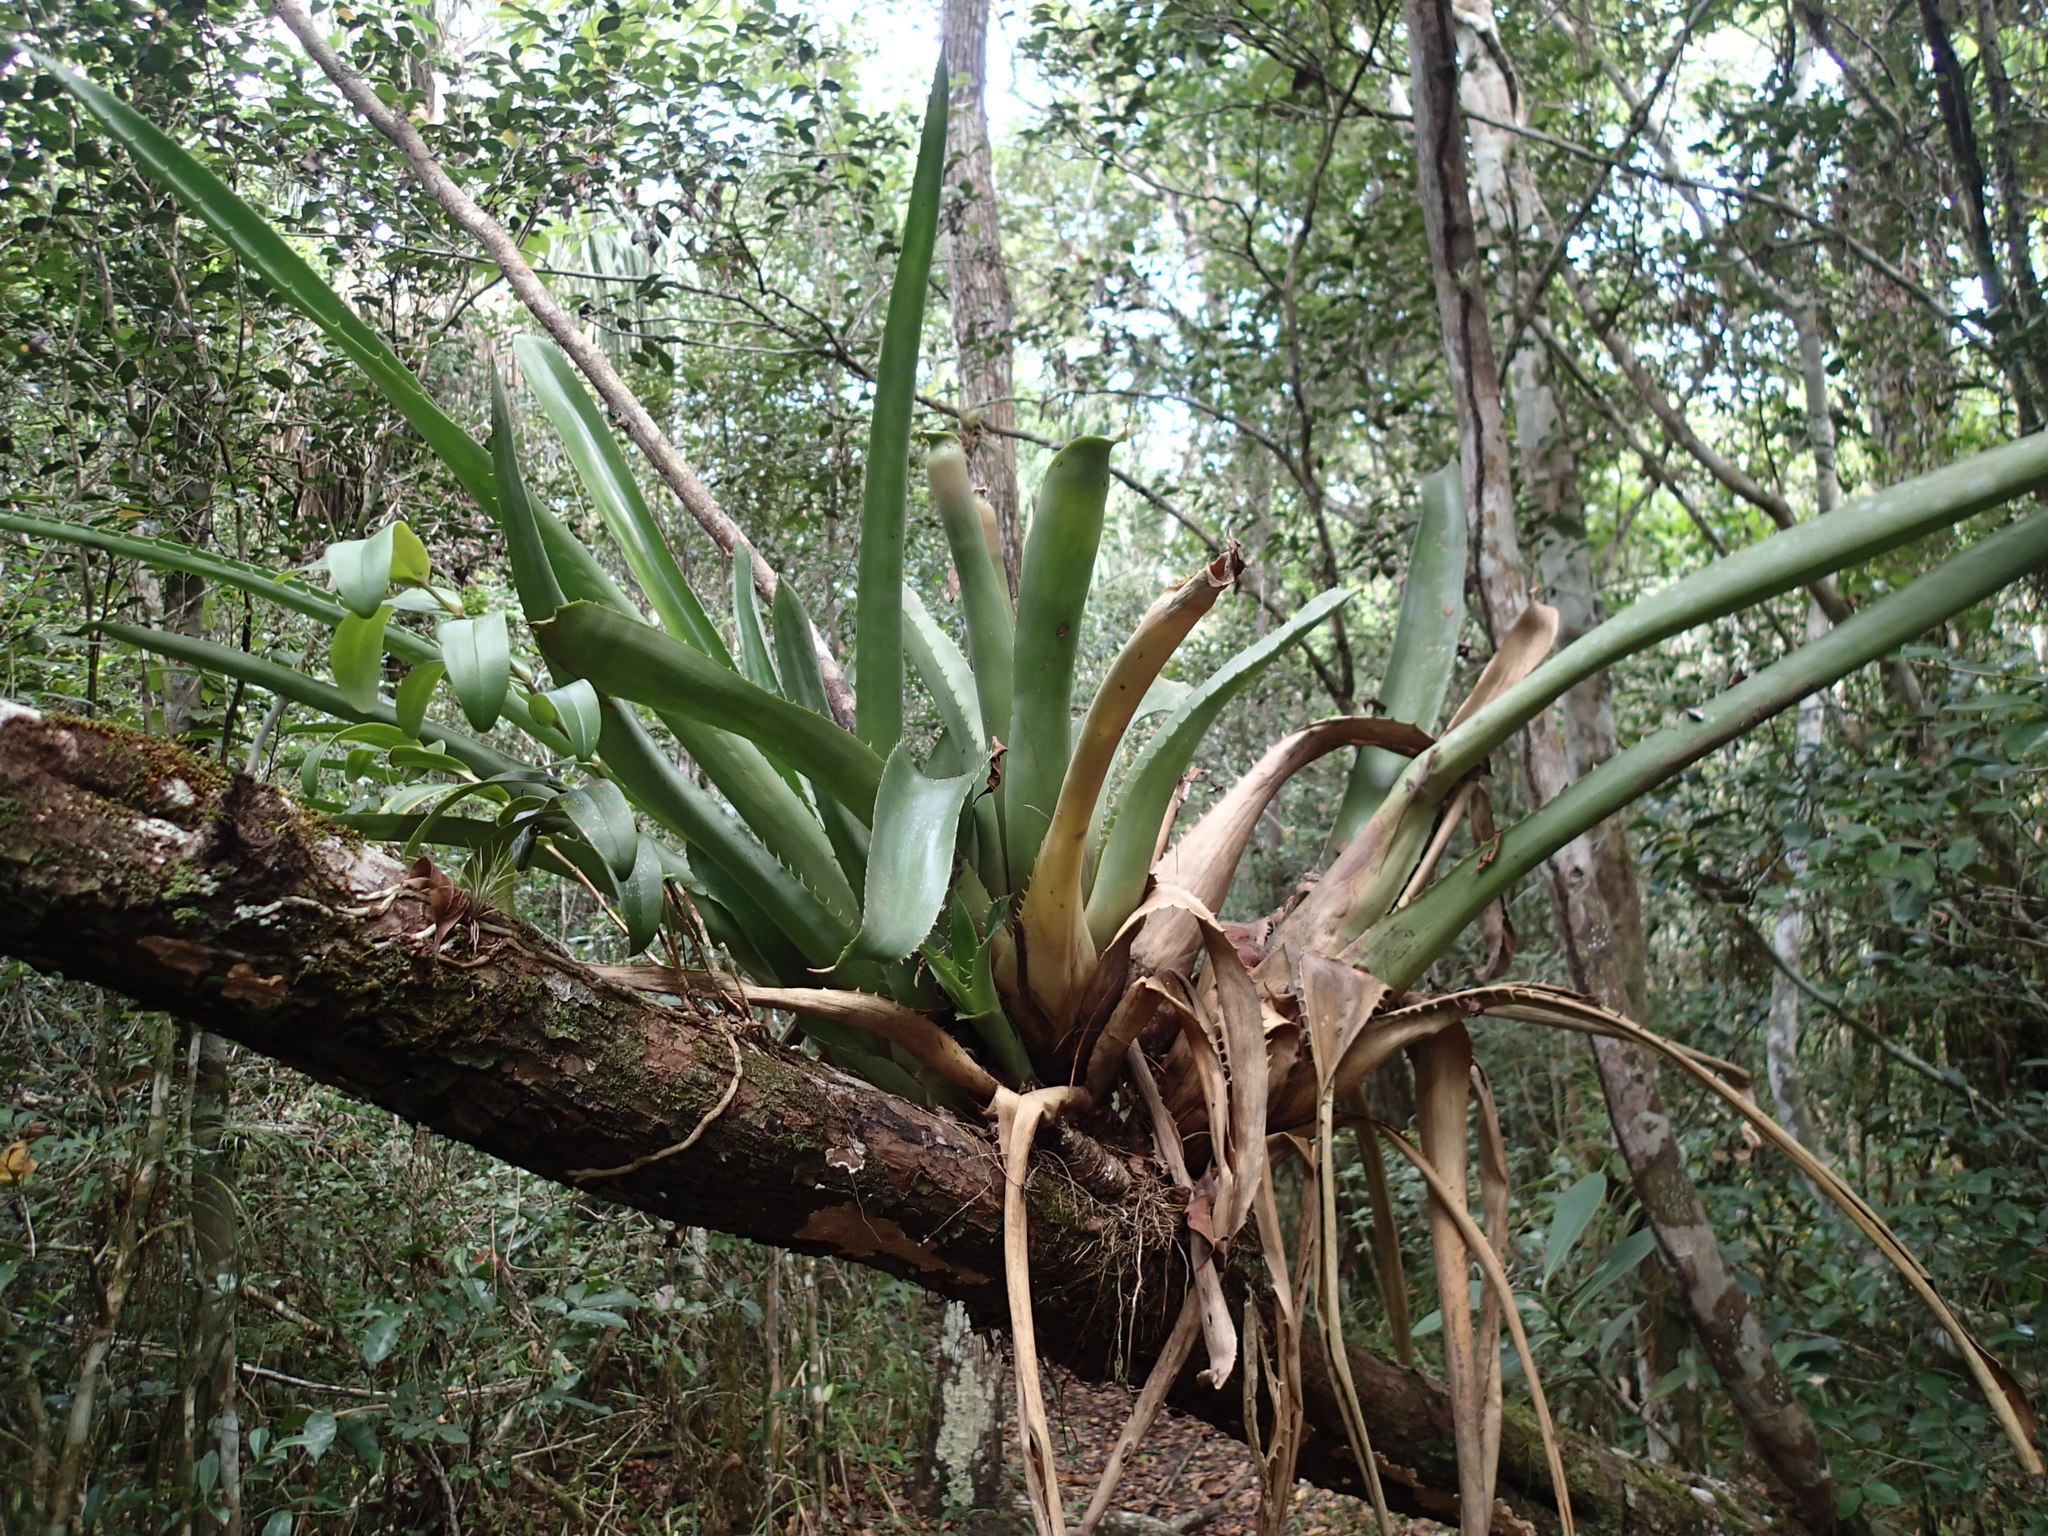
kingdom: Plantae
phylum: Tracheophyta
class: Liliopsida
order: Poales
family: Bromeliaceae
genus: Aechmea
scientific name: Aechmea bracteata
